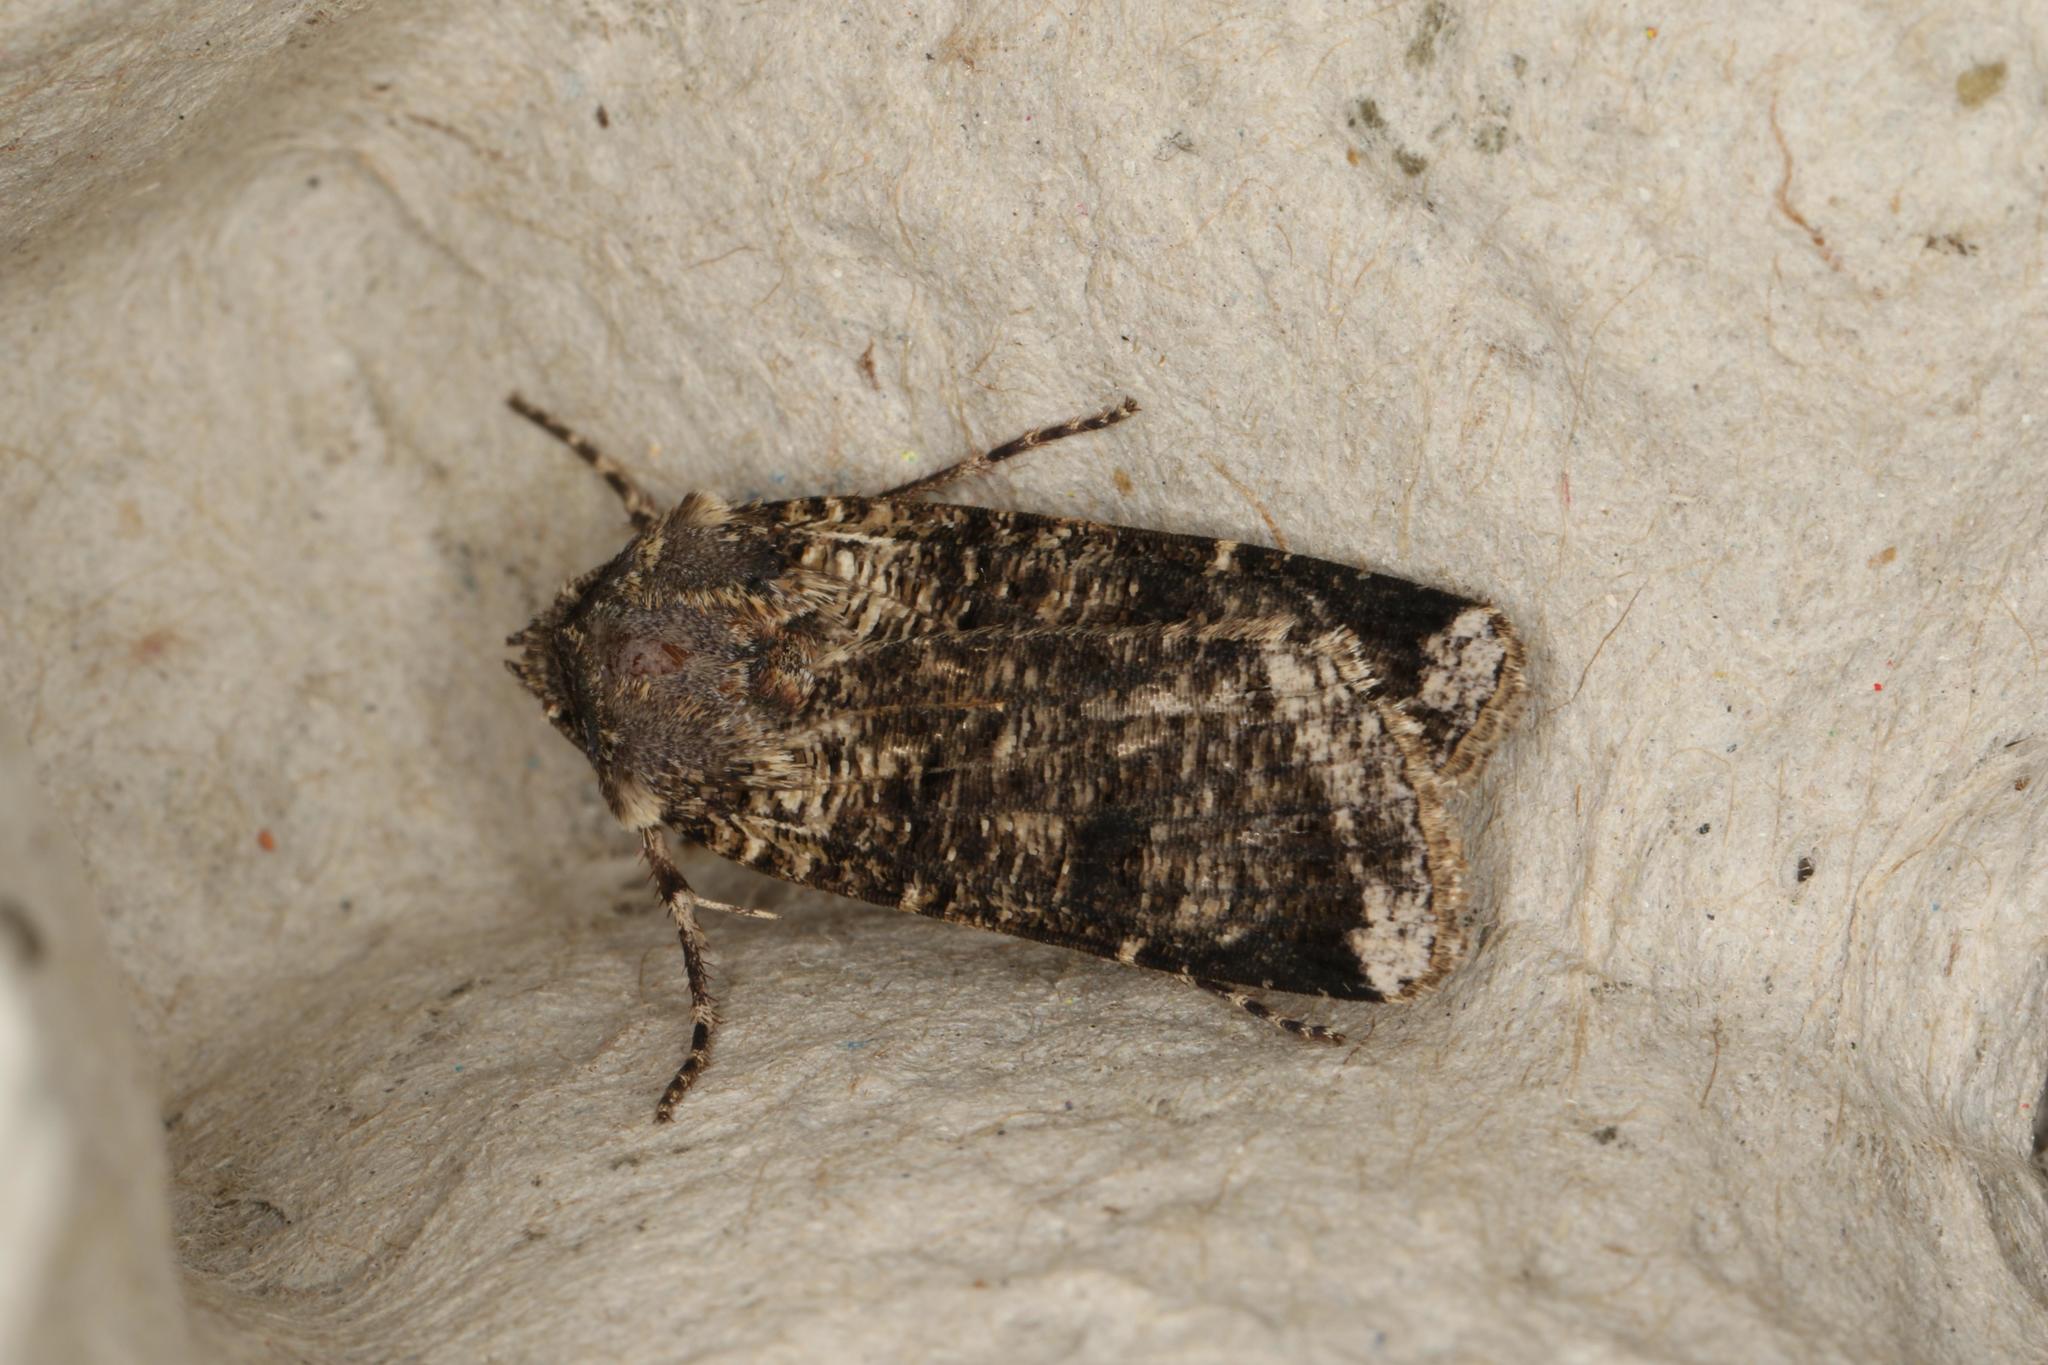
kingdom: Animalia
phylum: Arthropoda
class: Insecta
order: Lepidoptera
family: Noctuidae
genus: Agrotis
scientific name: Agrotis porphyricollis
